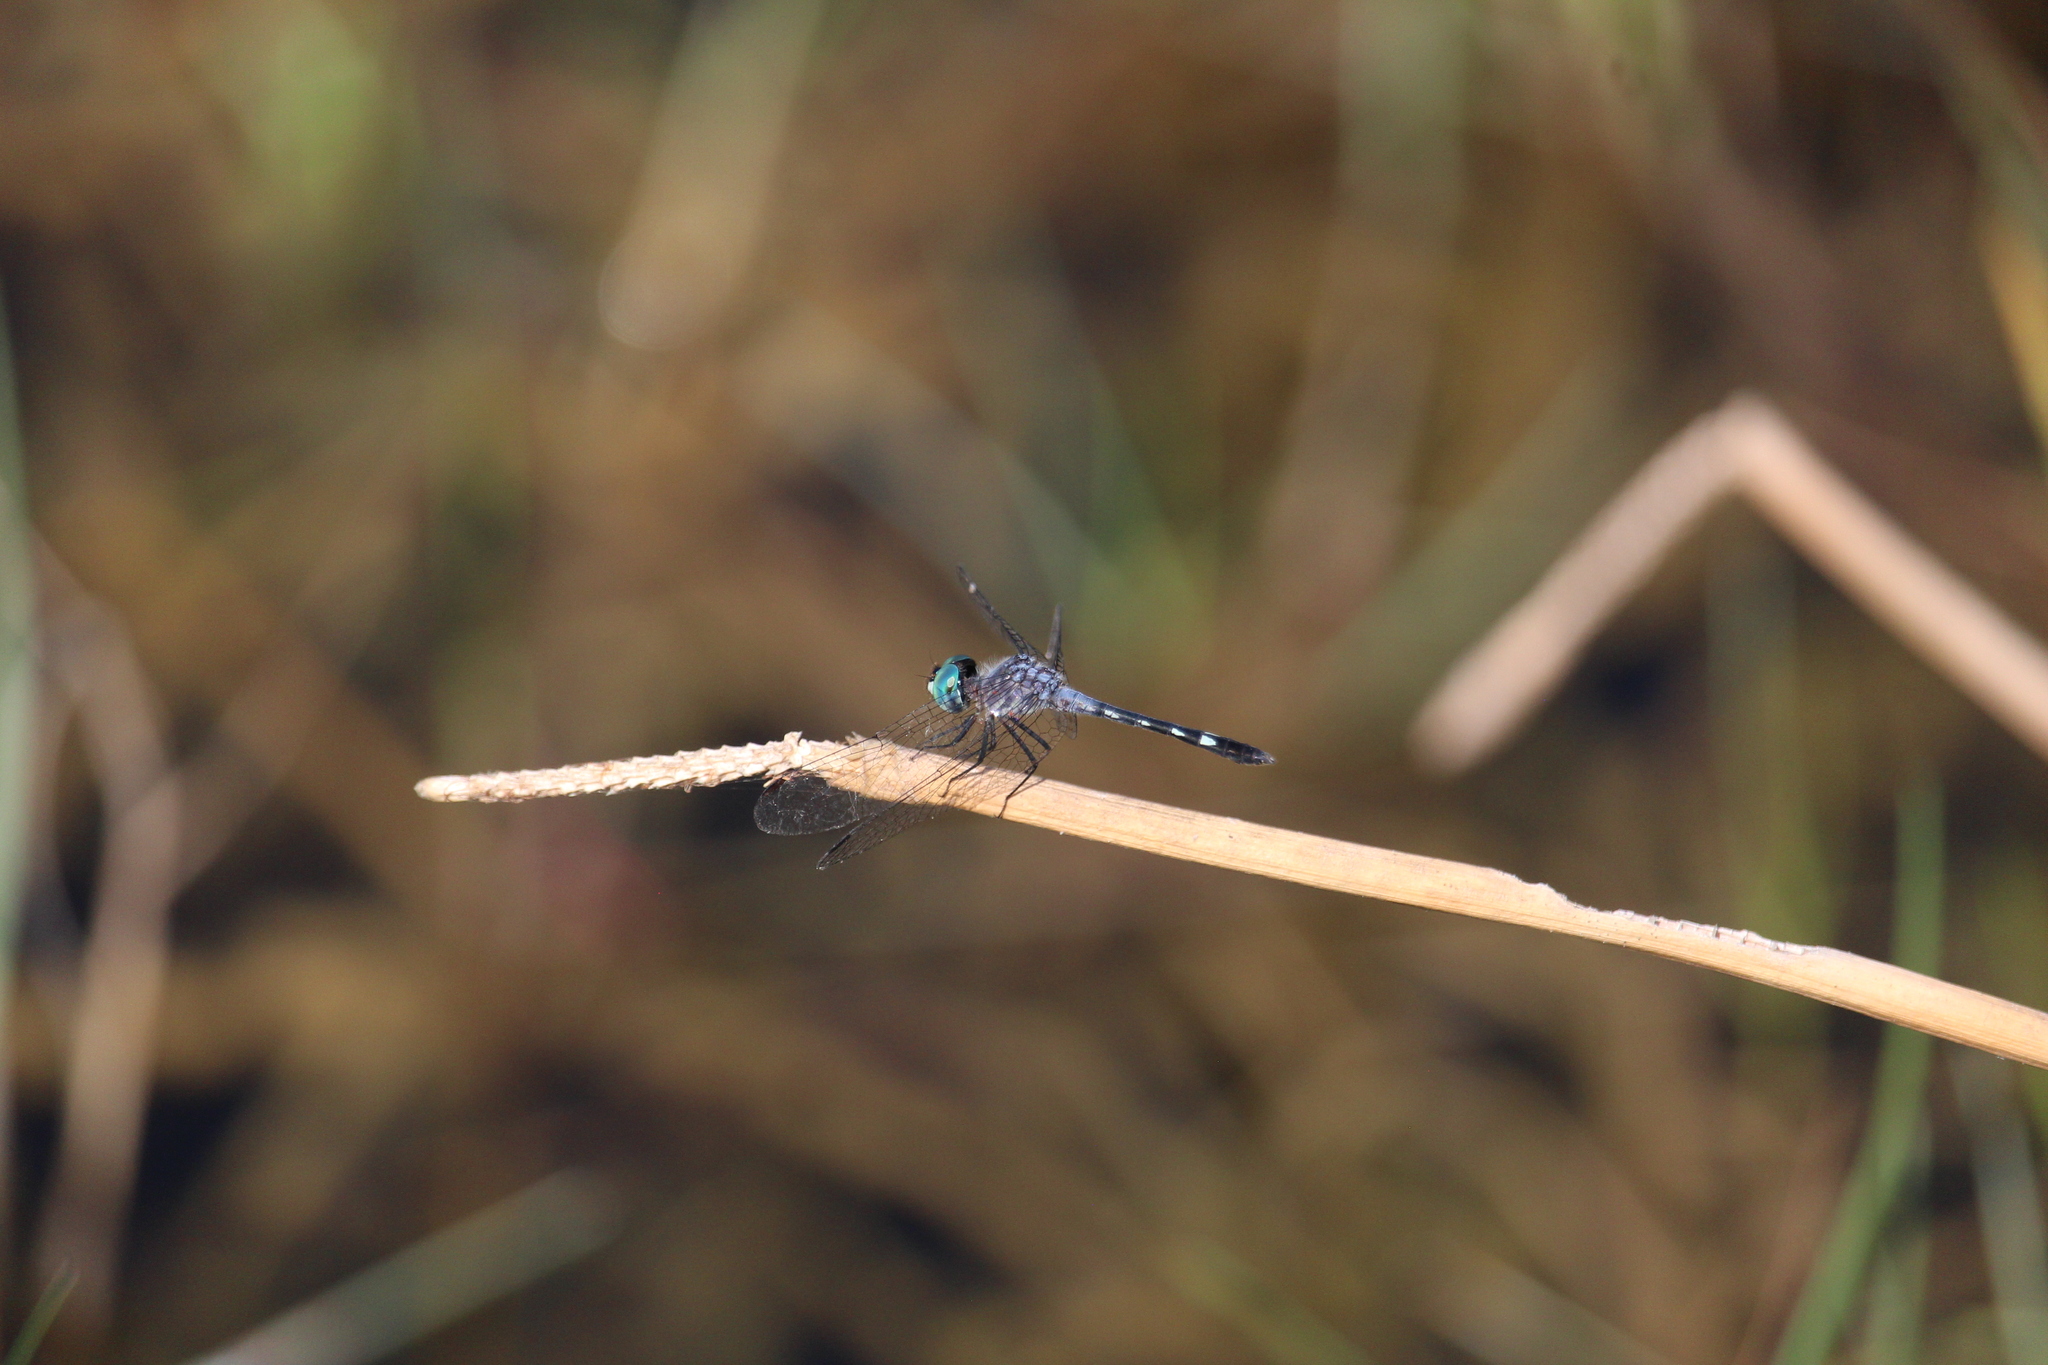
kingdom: Animalia
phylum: Arthropoda
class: Insecta
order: Odonata
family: Libellulidae
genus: Micrathyria
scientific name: Micrathyria debilis
